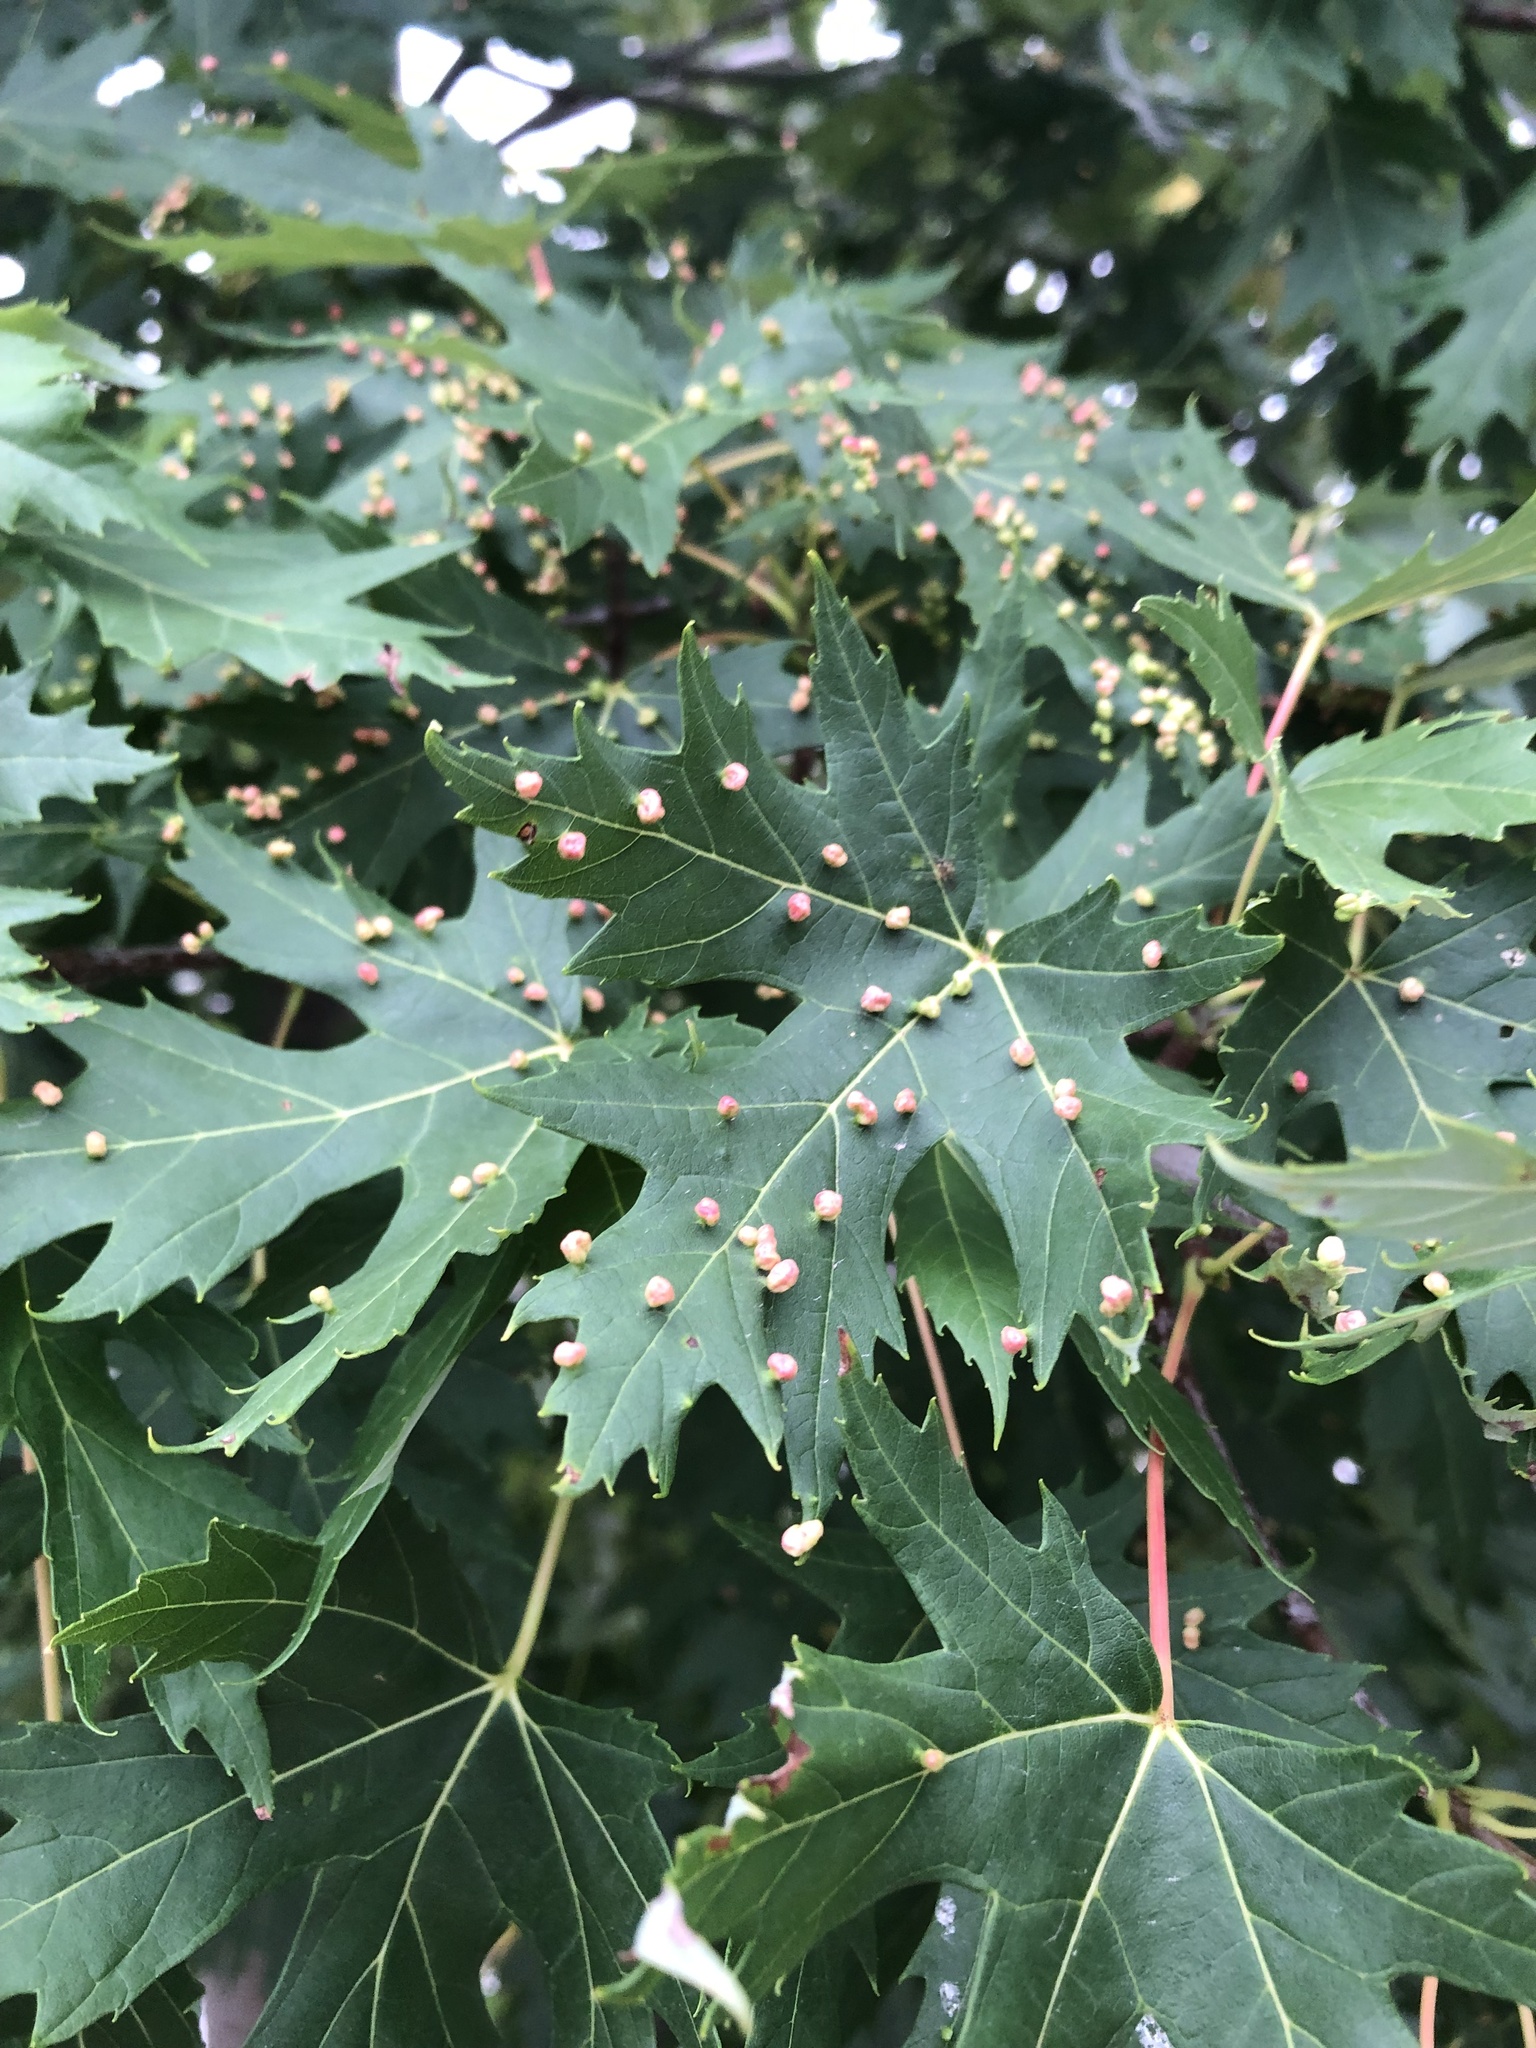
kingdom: Animalia
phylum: Arthropoda
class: Arachnida
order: Trombidiformes
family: Eriophyidae
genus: Vasates
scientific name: Vasates quadripedes
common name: Maple bladder gall mite
